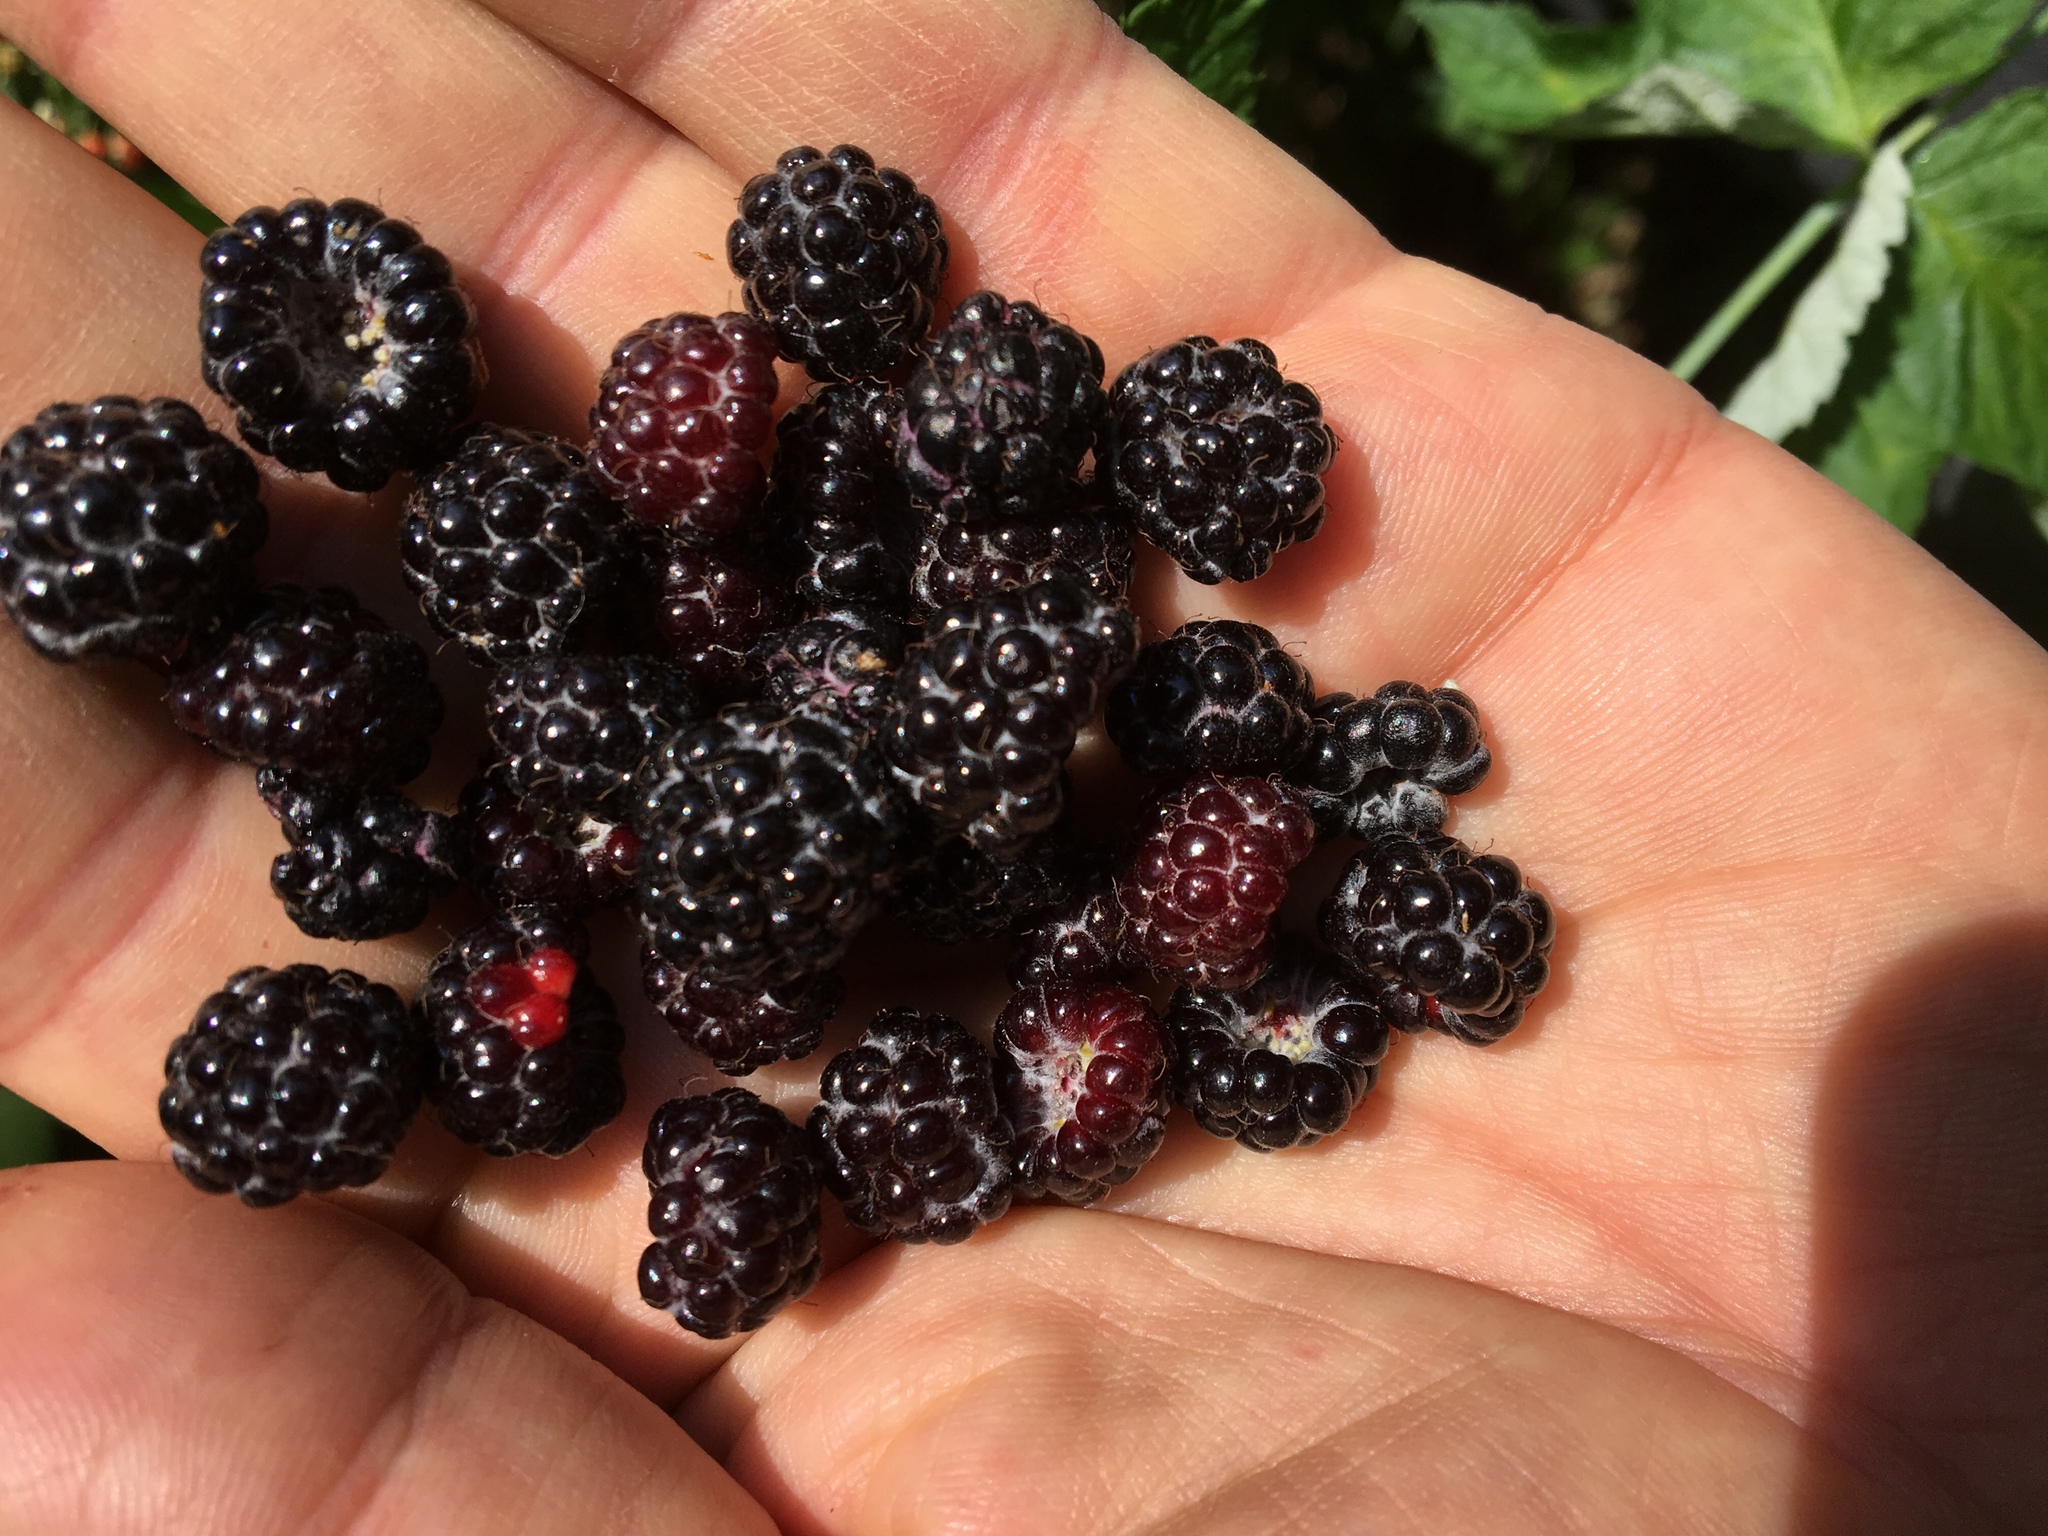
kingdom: Plantae
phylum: Tracheophyta
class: Magnoliopsida
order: Rosales
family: Rosaceae
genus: Rubus
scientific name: Rubus occidentalis
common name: Black raspberry
